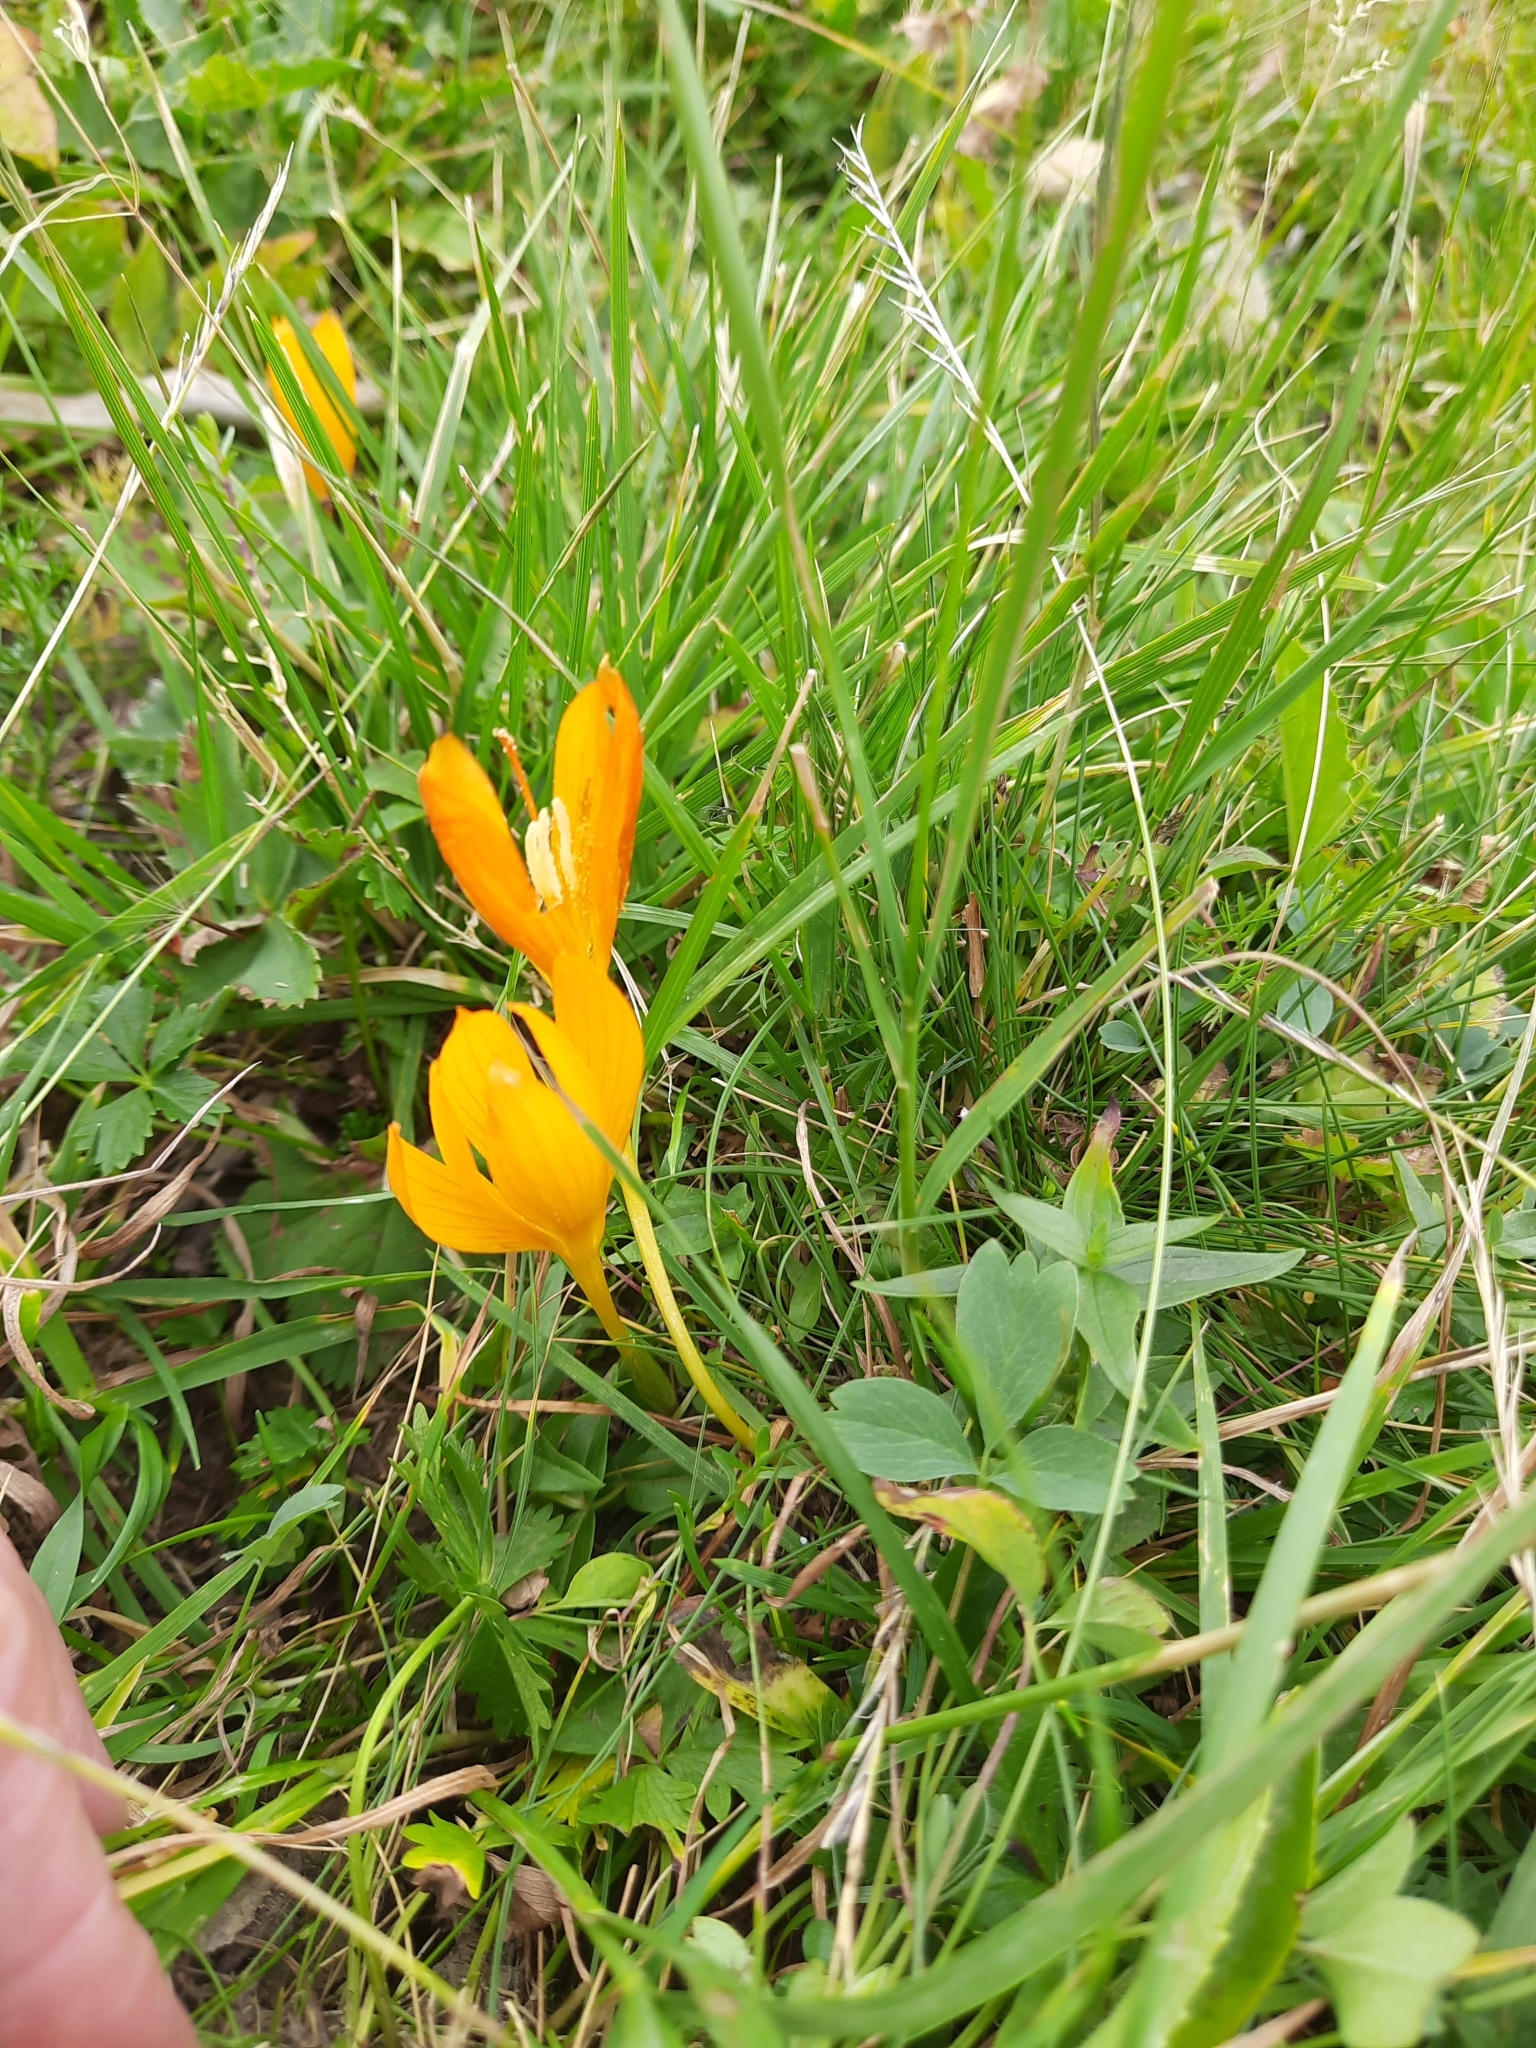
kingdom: Plantae
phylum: Tracheophyta
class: Liliopsida
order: Asparagales
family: Iridaceae
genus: Crocus
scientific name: Crocus scharojanii
